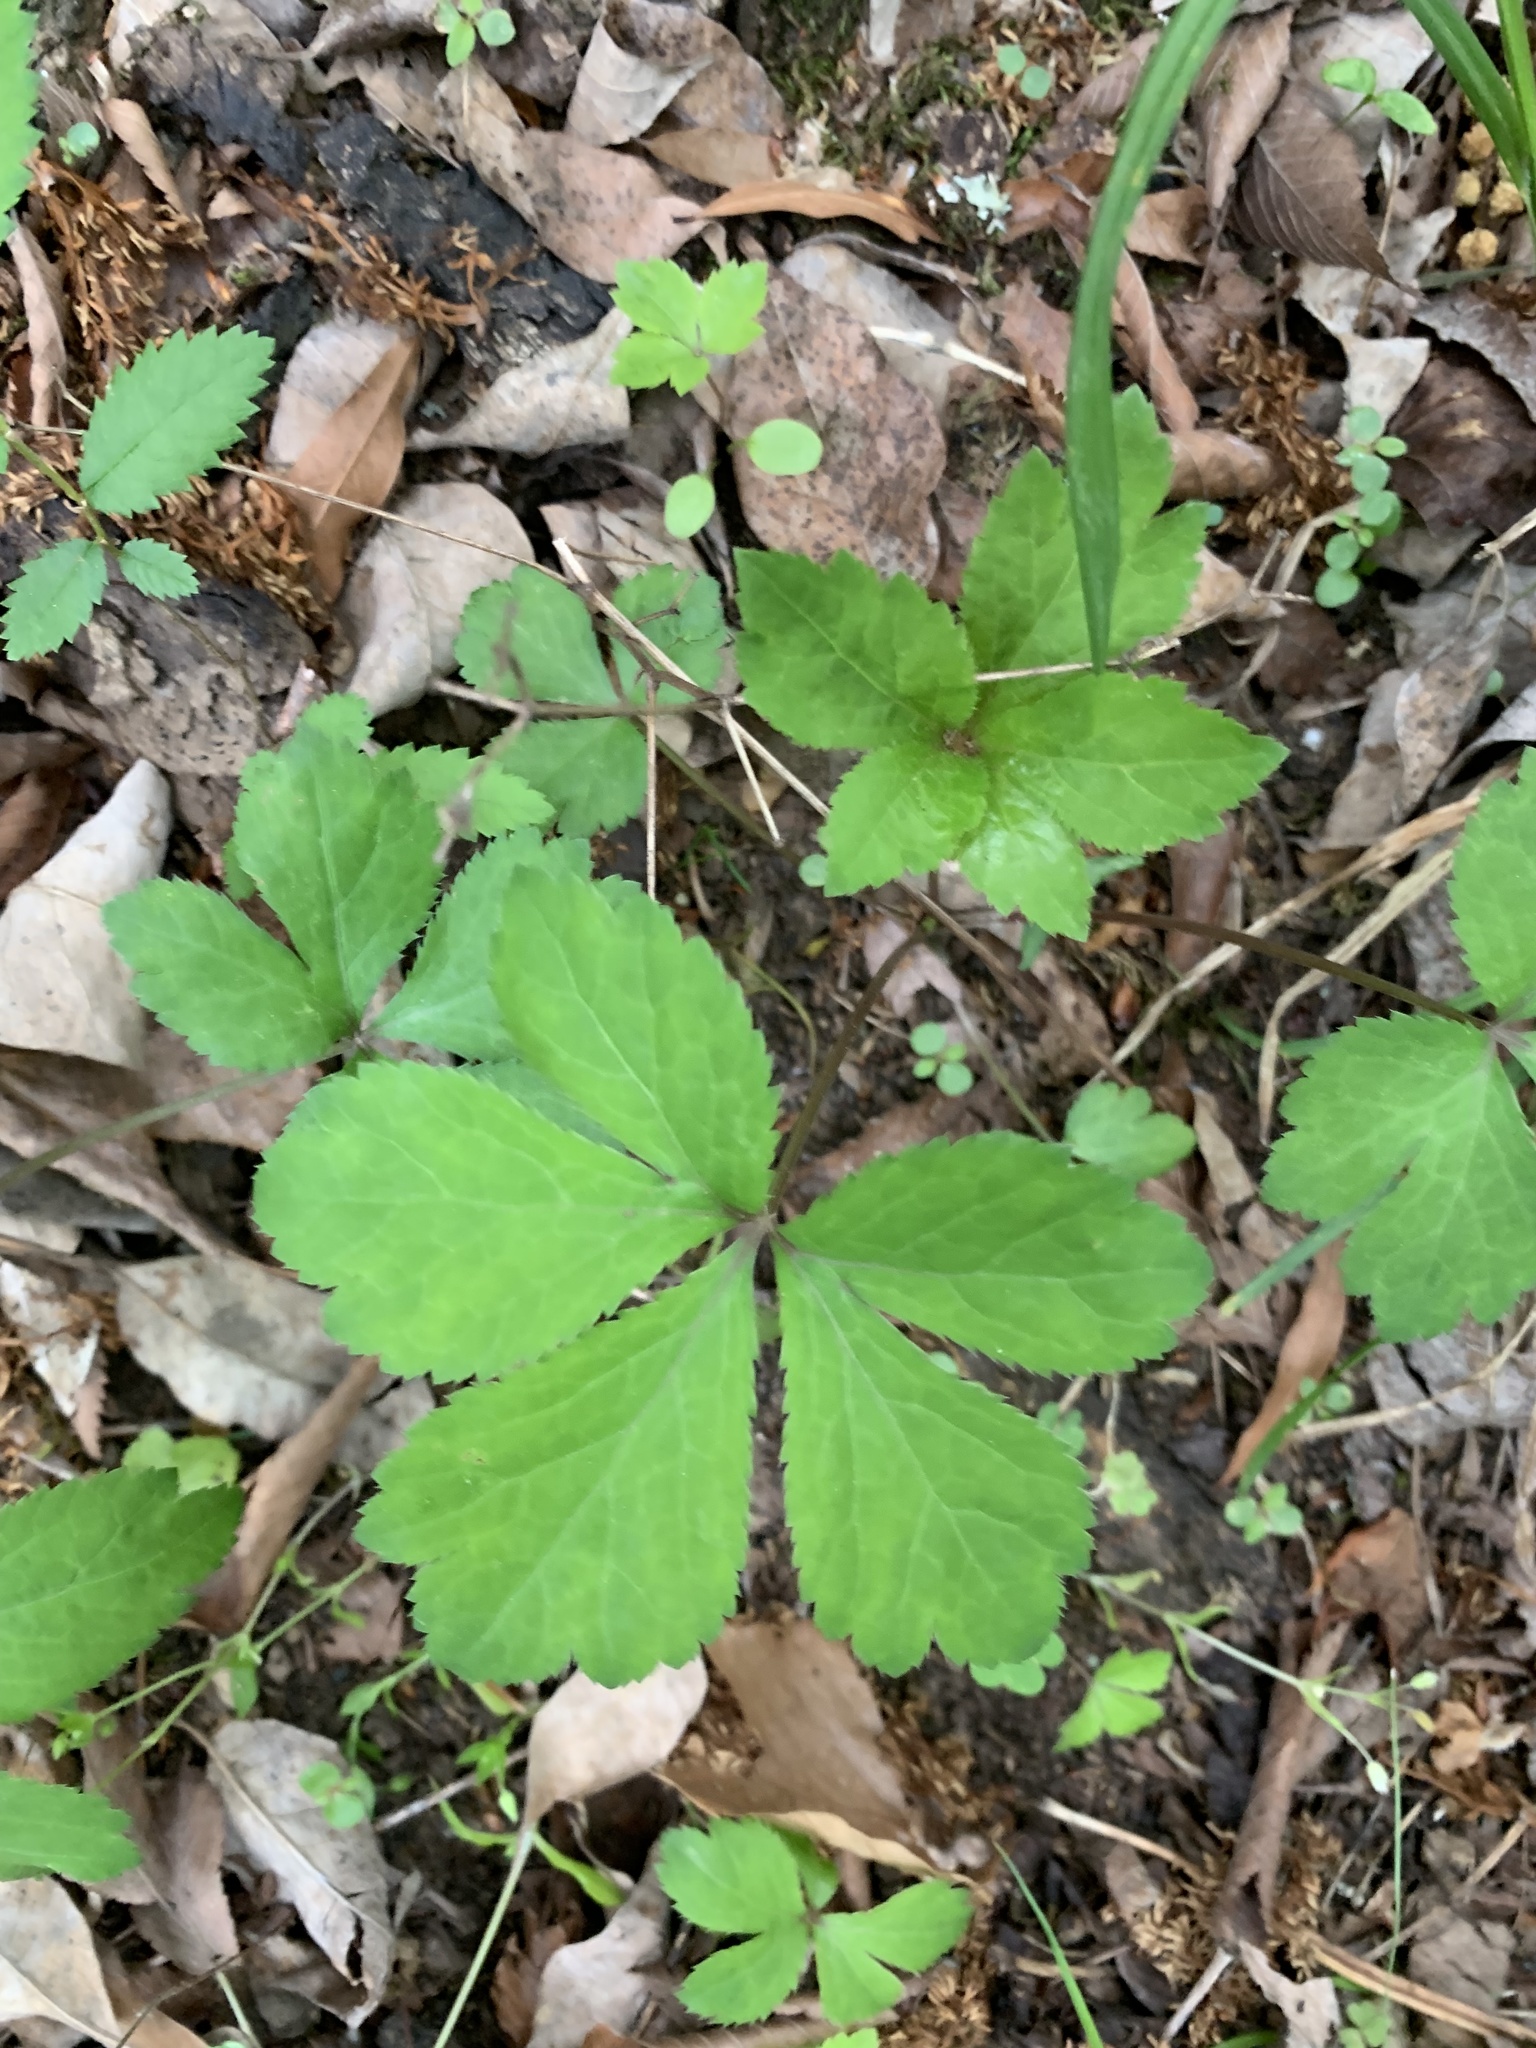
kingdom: Plantae
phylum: Tracheophyta
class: Magnoliopsida
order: Apiales
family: Apiaceae
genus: Sanicula
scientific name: Sanicula canadensis
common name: Canada sanicle
